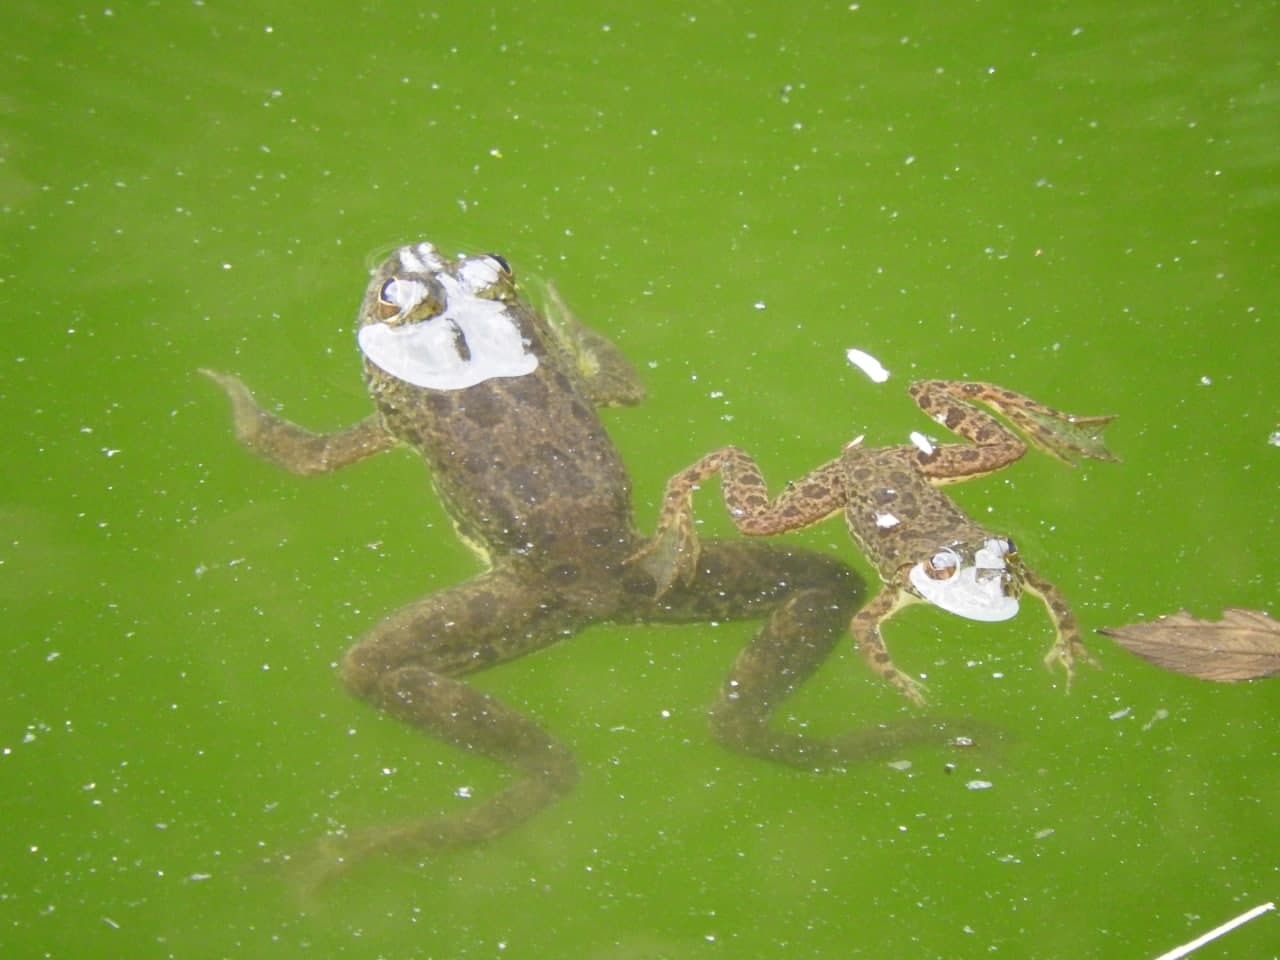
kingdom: Animalia
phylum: Chordata
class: Amphibia
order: Anura
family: Dicroglossidae
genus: Euphlyctis
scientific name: Euphlyctis cyanophlyctis
